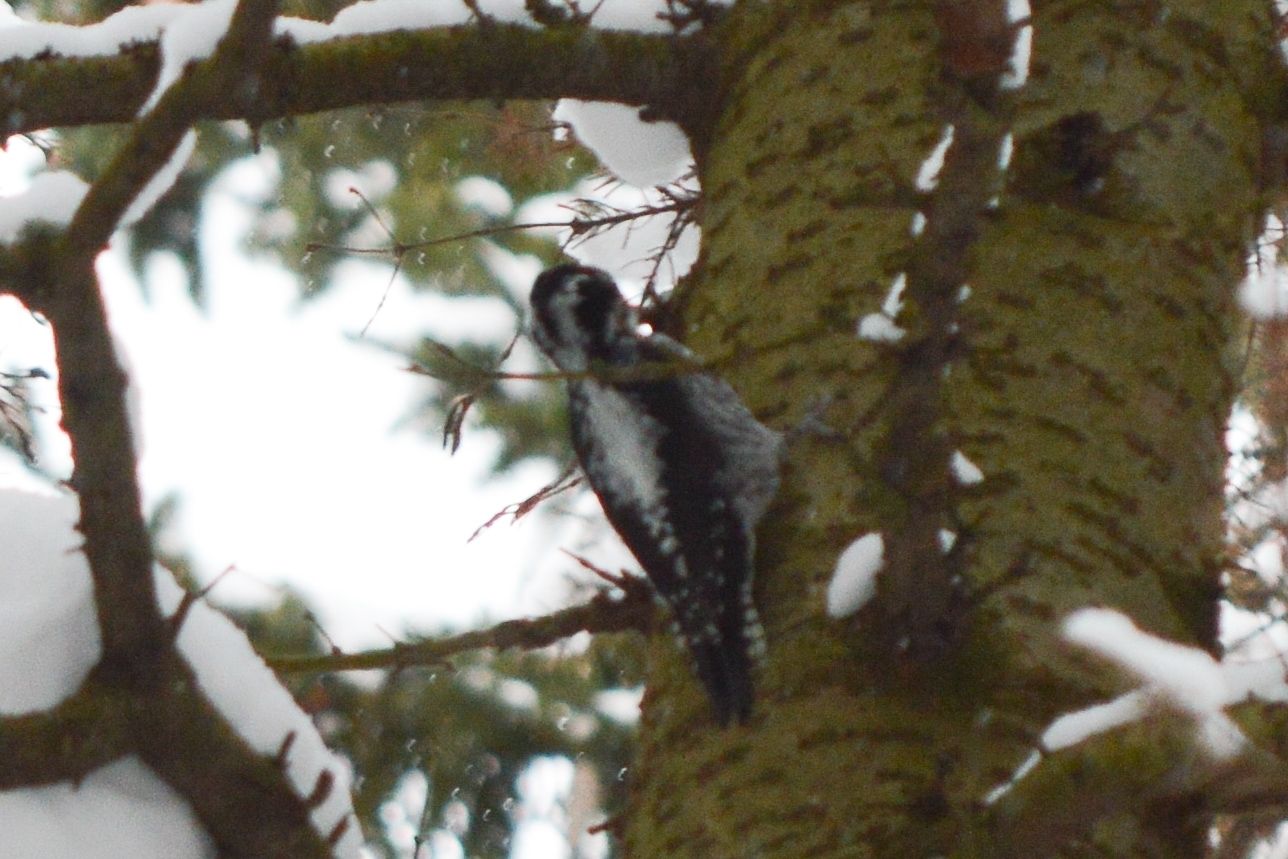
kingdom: Animalia
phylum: Chordata
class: Aves
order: Piciformes
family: Picidae
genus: Picoides
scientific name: Picoides tridactylus
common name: Eurasian three-toed woodpecker
